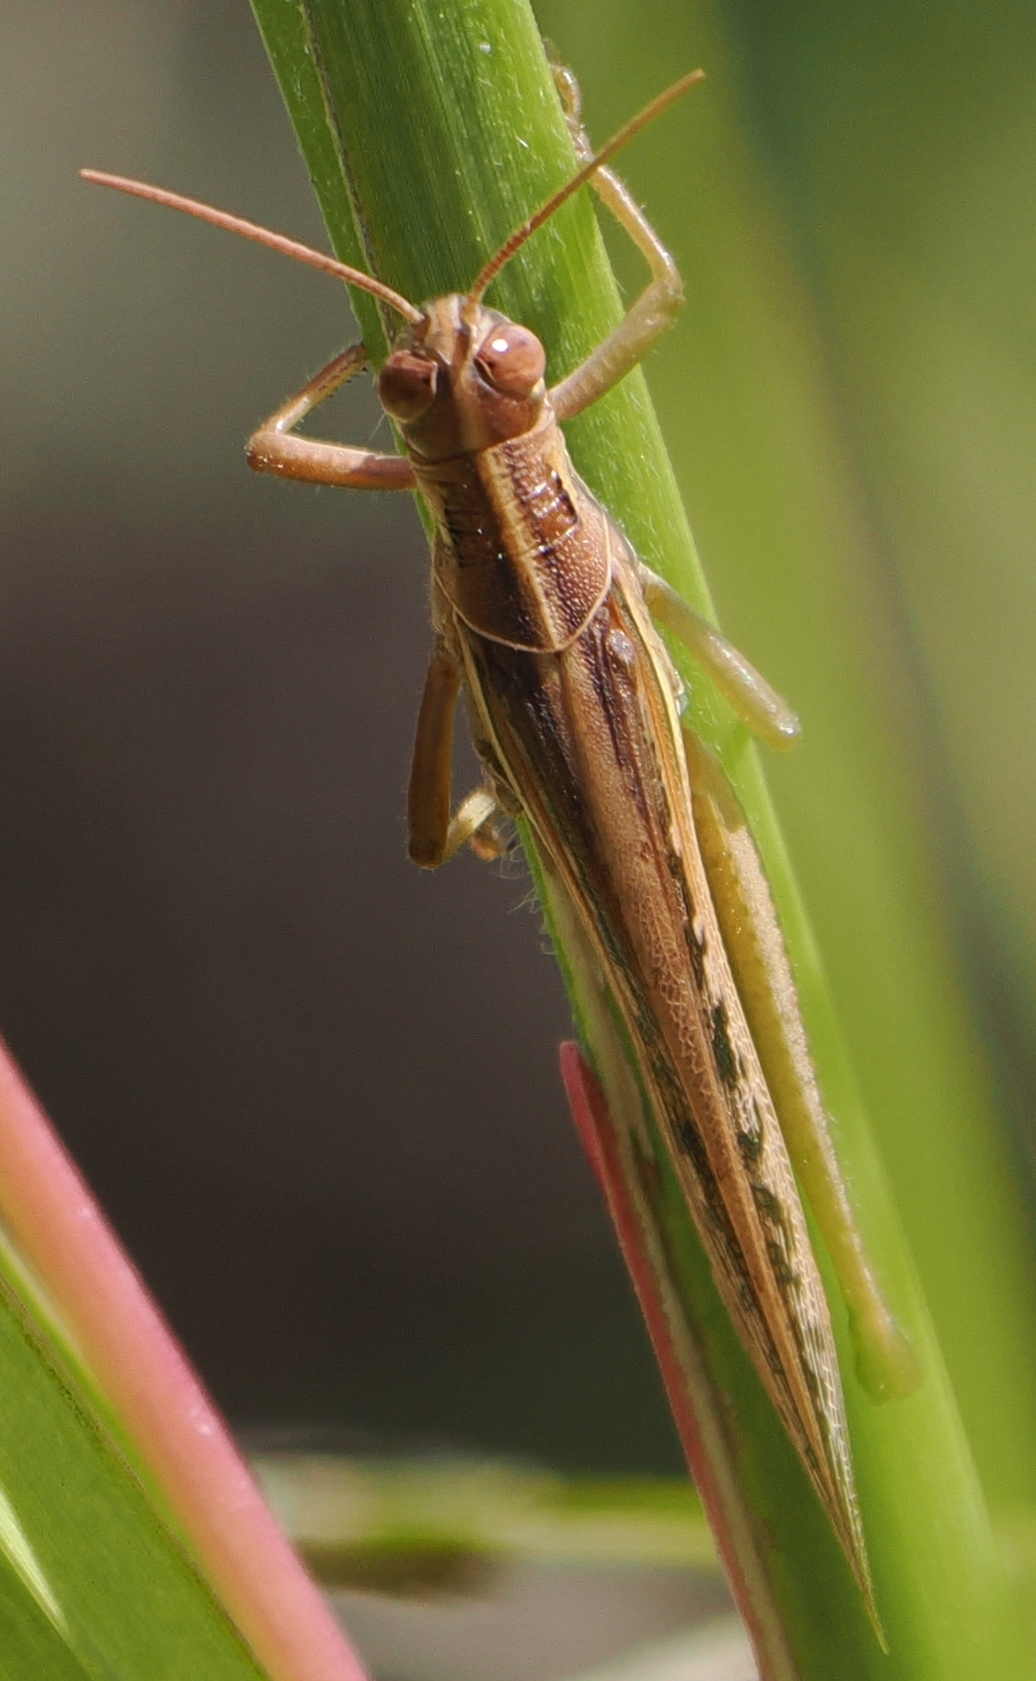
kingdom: Animalia
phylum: Arthropoda
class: Insecta
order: Orthoptera
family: Acrididae
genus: Austracris
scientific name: Austracris guttulosa
